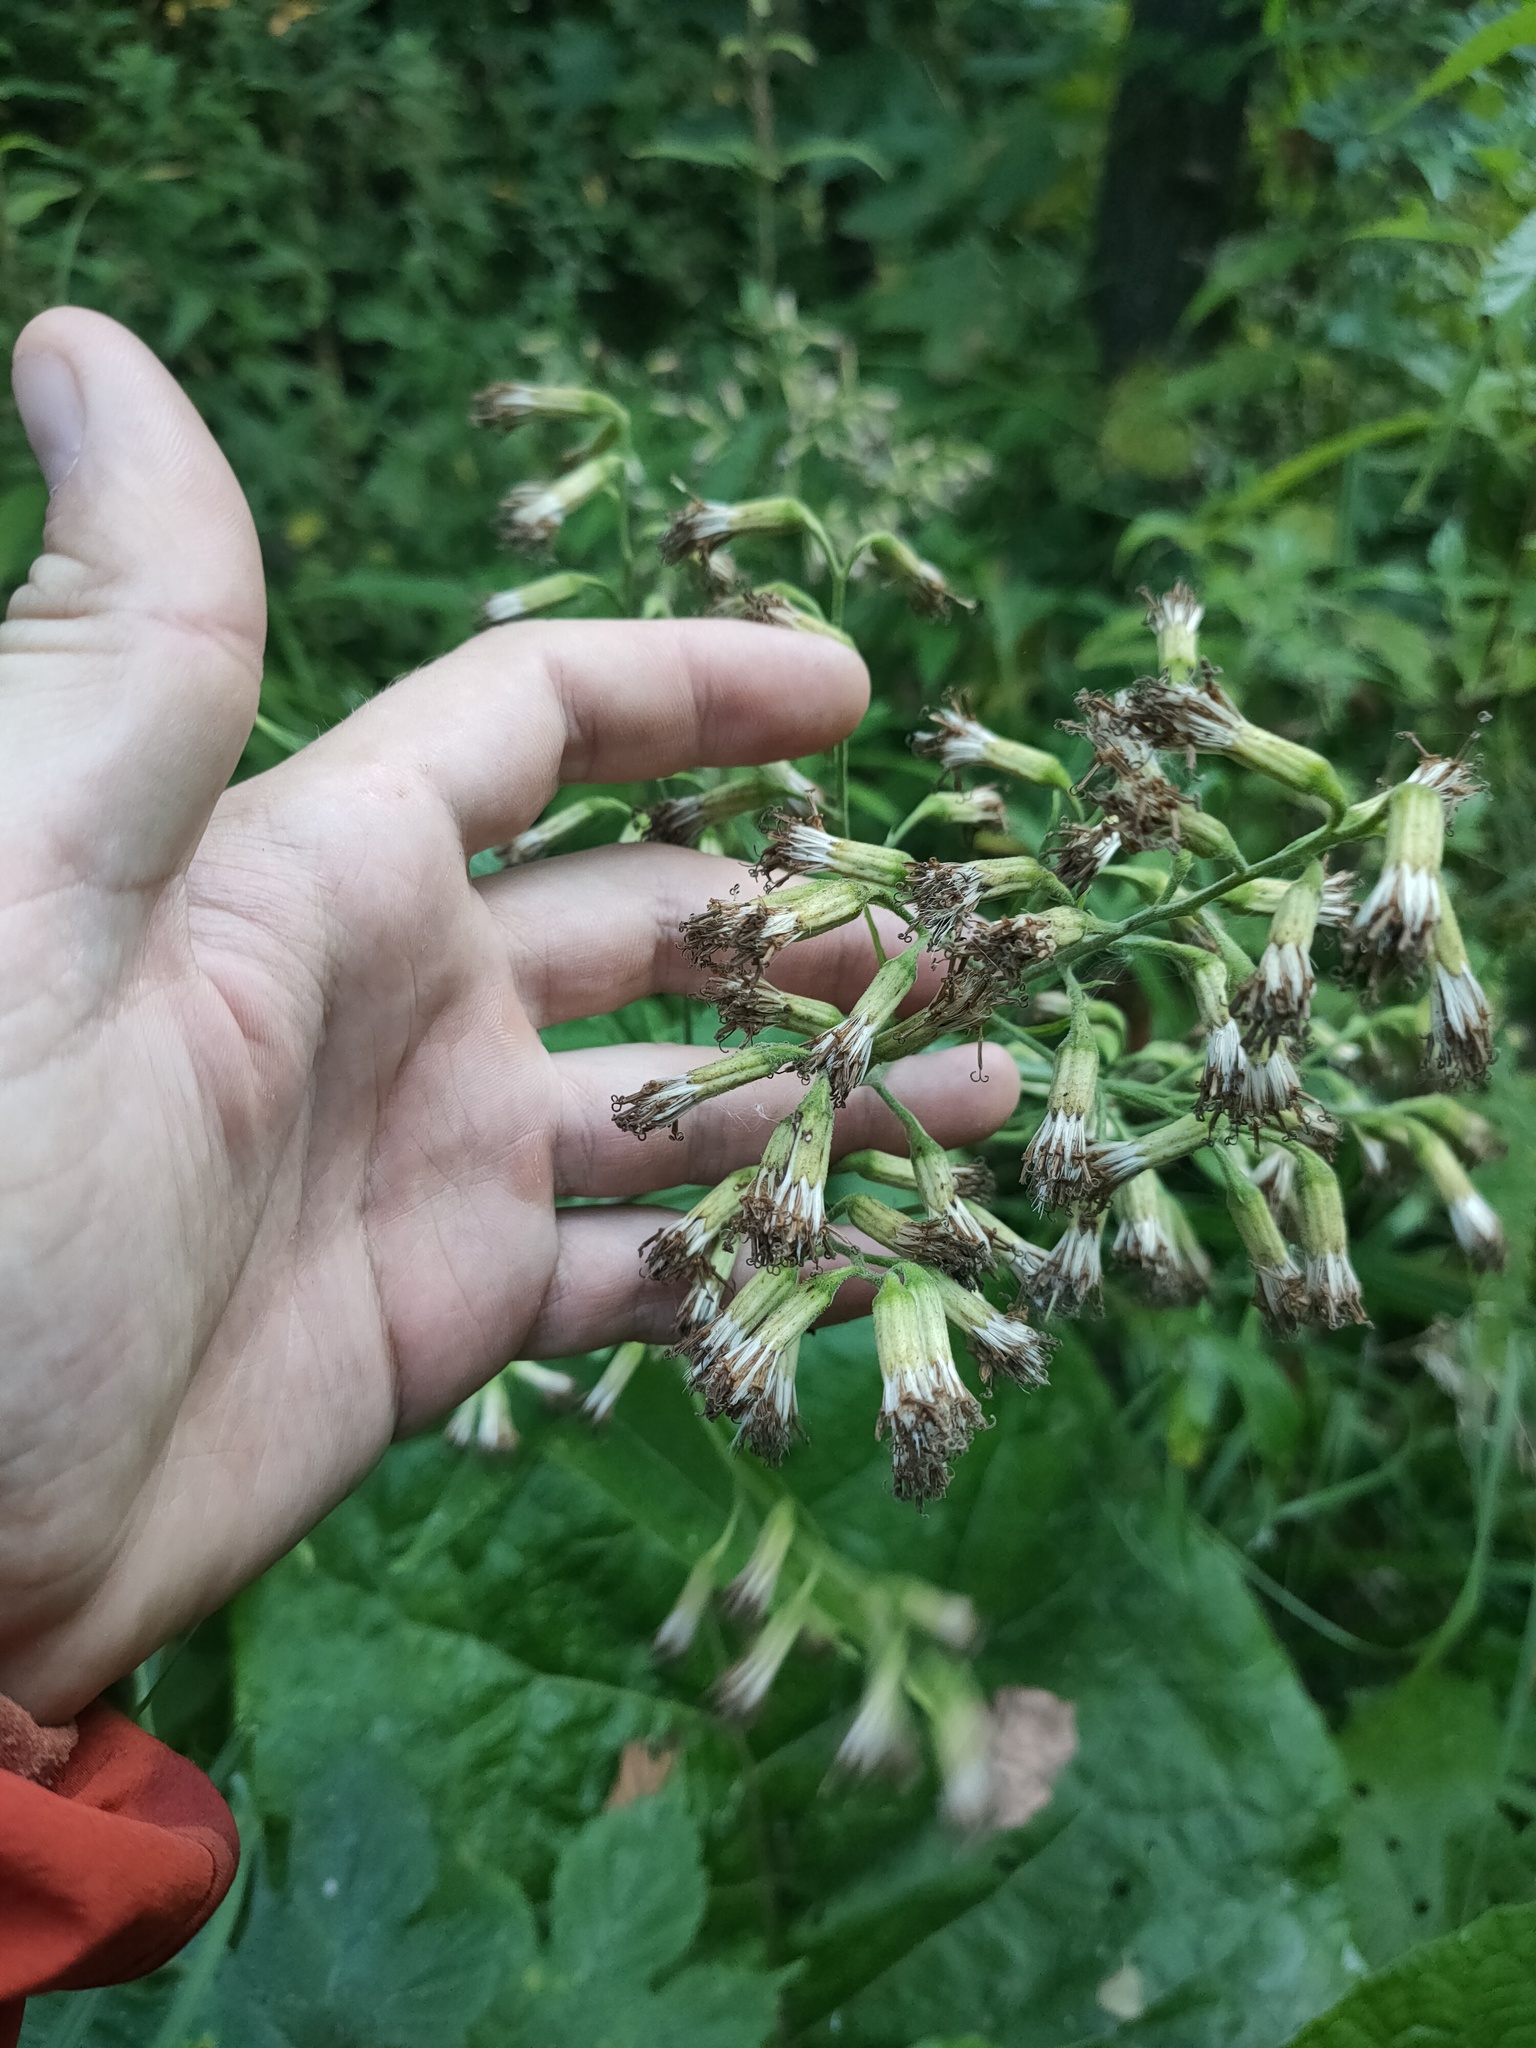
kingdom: Plantae
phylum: Tracheophyta
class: Magnoliopsida
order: Asterales
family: Asteraceae
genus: Parasenecio
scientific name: Parasenecio hastatus
